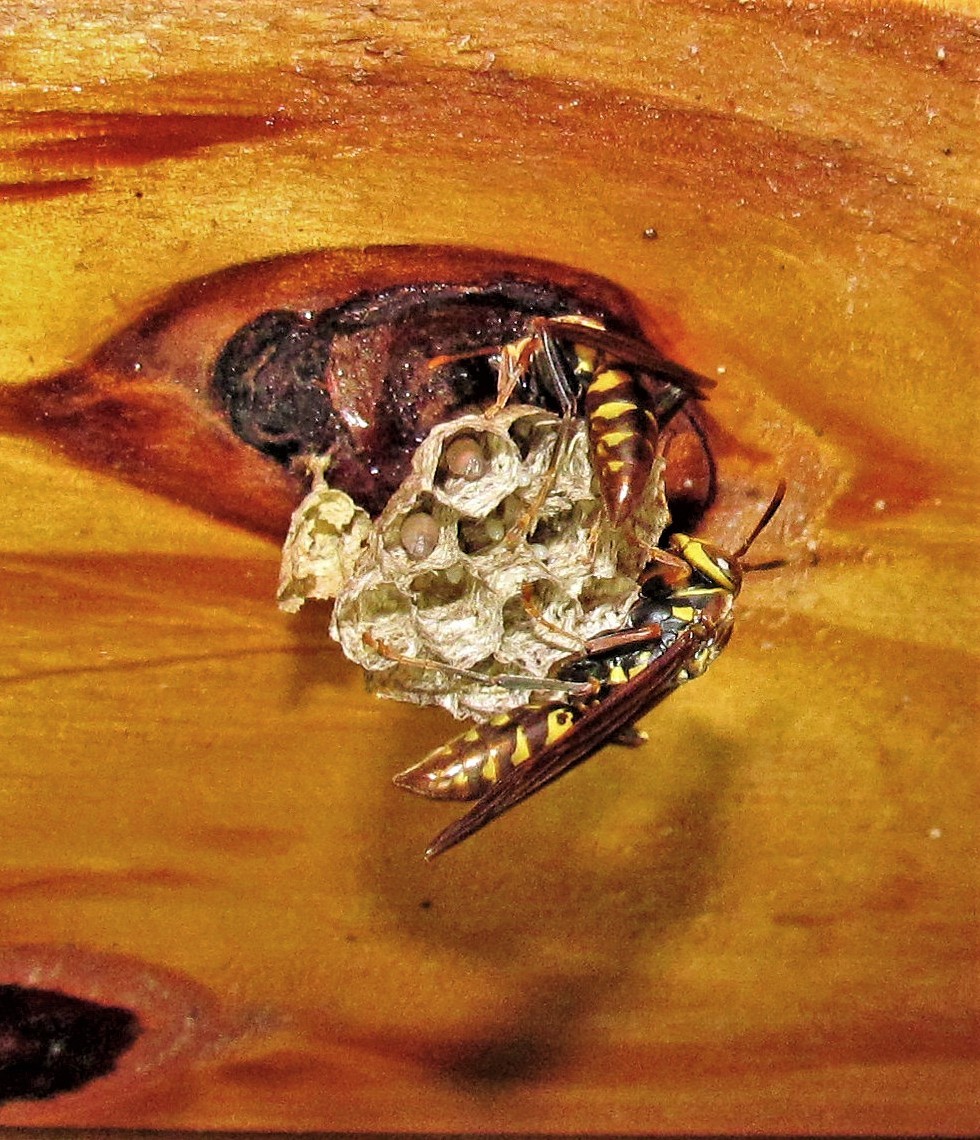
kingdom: Animalia
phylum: Arthropoda
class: Insecta
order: Hymenoptera
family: Eumenidae
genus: Polistes
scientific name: Polistes versicolor
